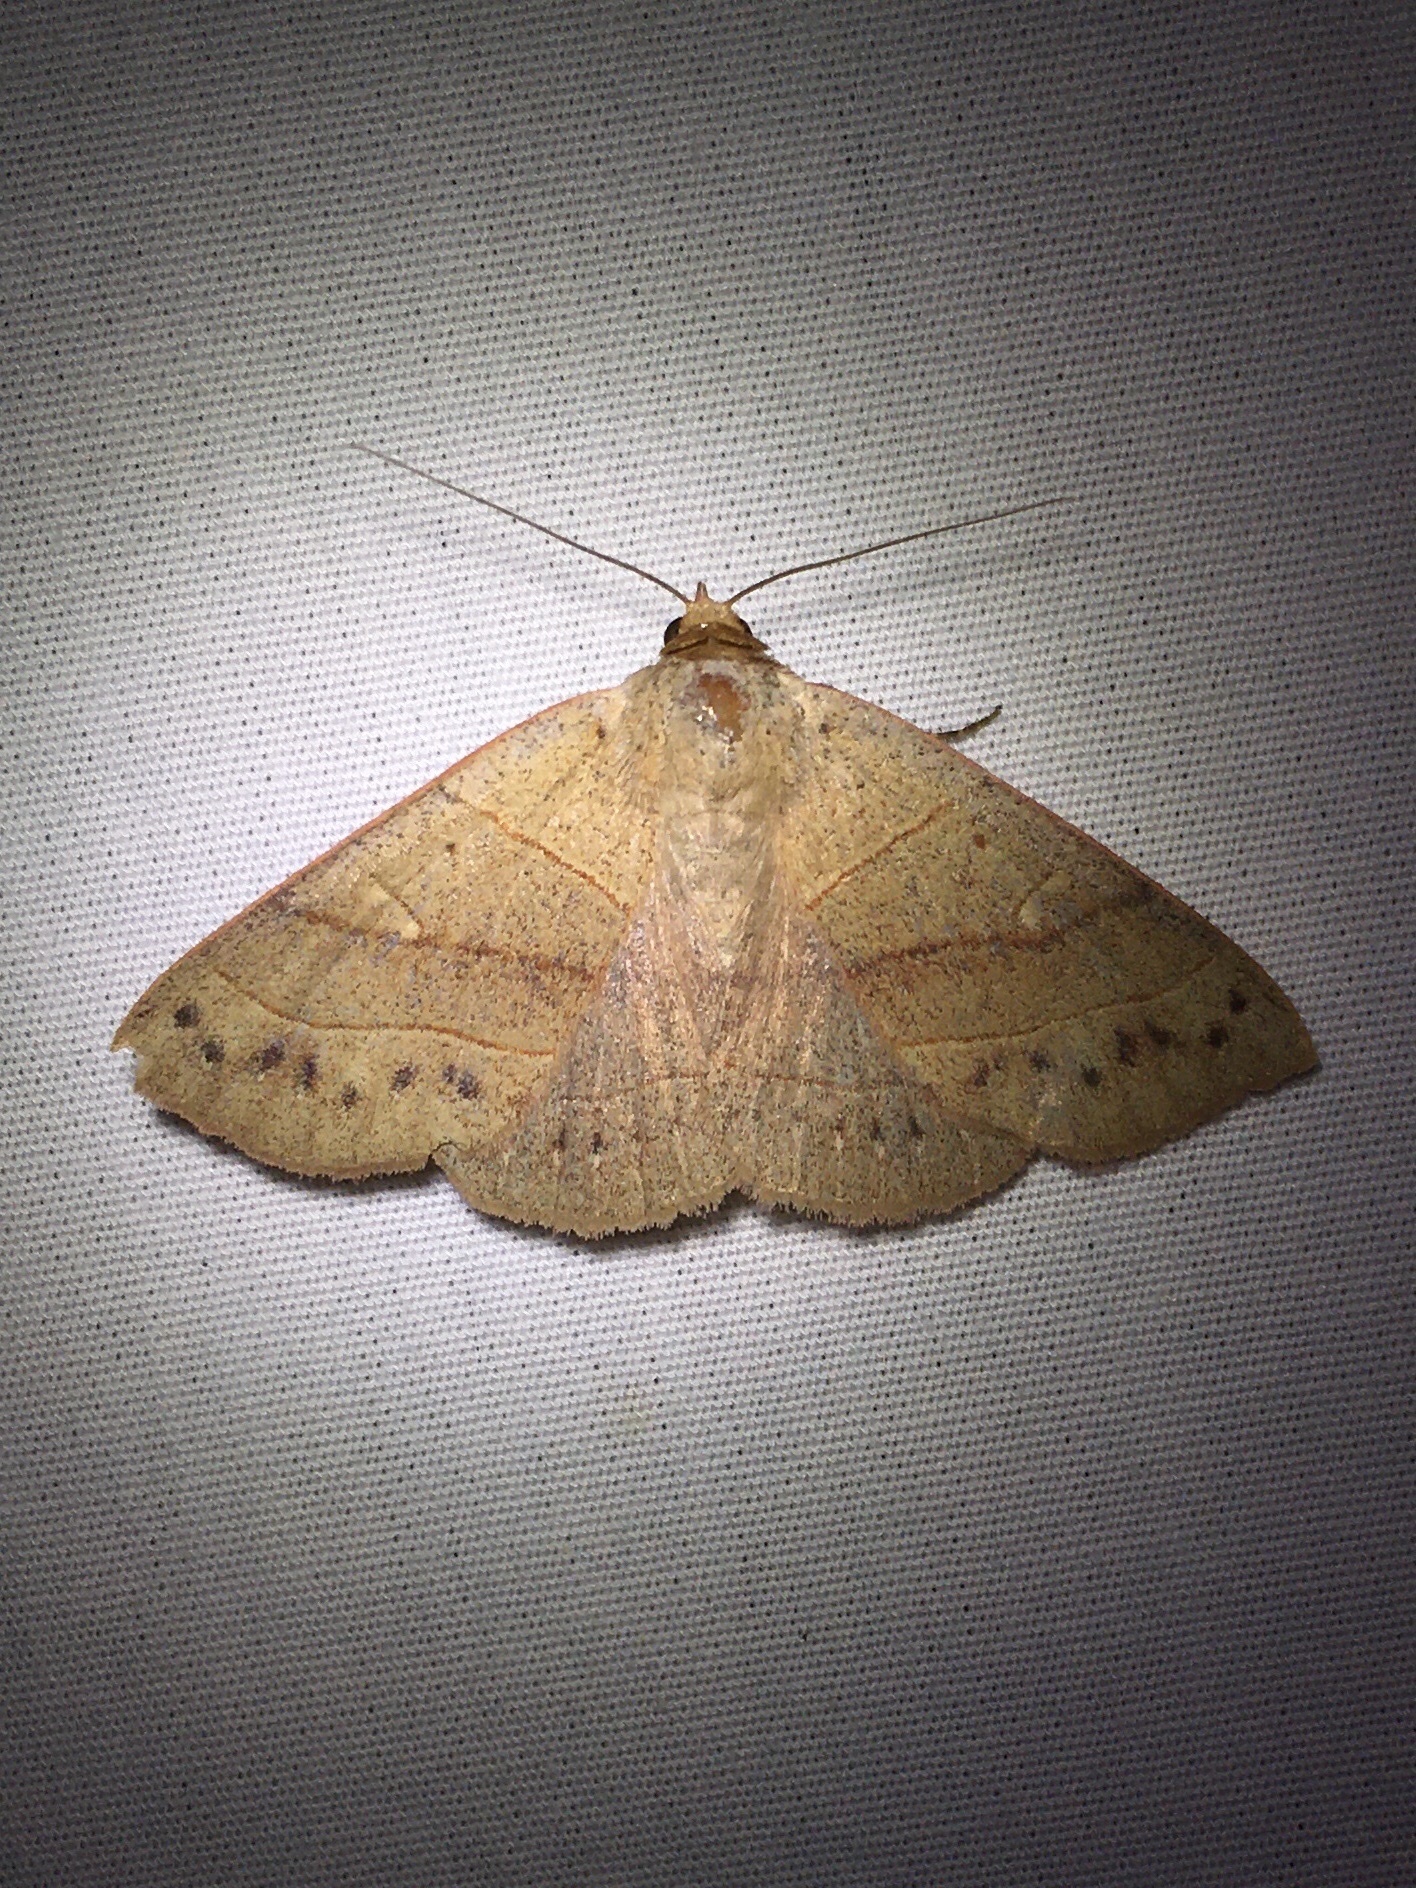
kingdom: Animalia
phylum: Arthropoda
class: Insecta
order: Lepidoptera
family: Erebidae
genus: Panopoda
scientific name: Panopoda rufimargo
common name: Red-lined panopoda moth
